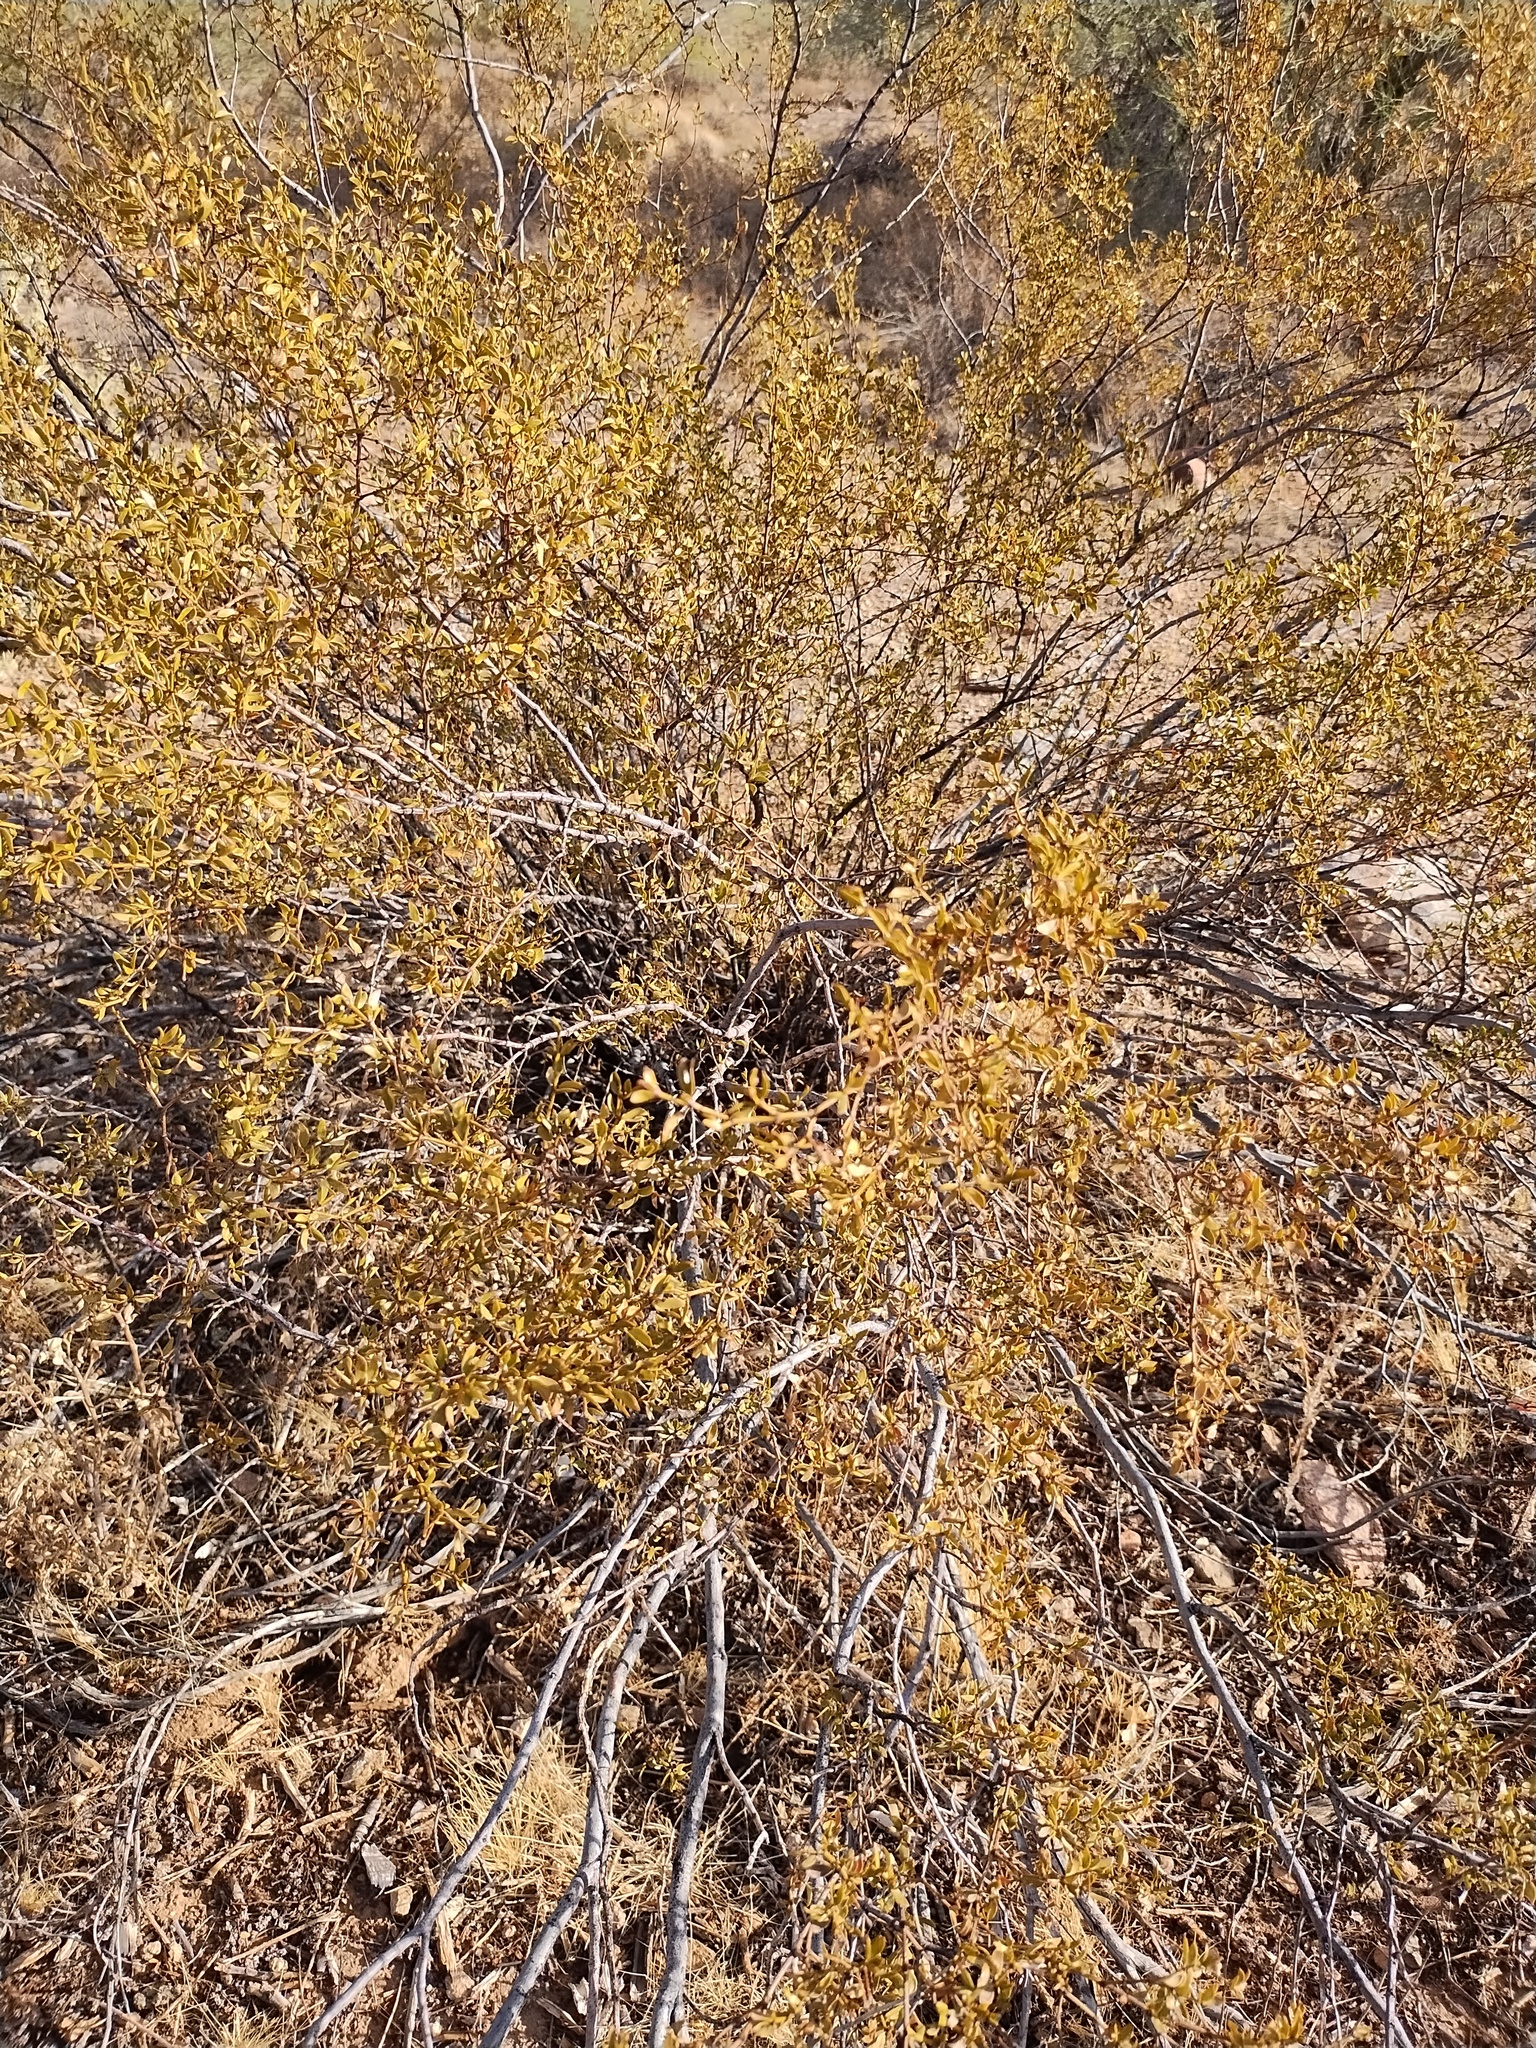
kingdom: Plantae
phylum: Tracheophyta
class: Magnoliopsida
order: Zygophyllales
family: Zygophyllaceae
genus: Larrea
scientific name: Larrea tridentata
